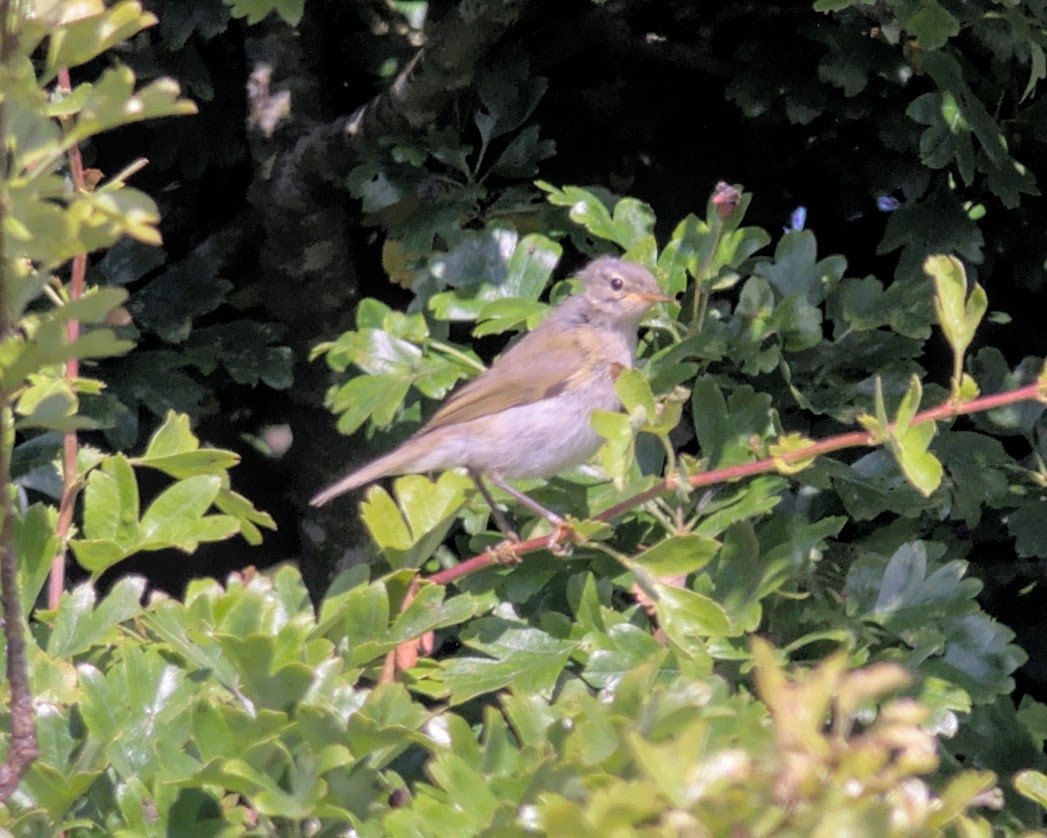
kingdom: Animalia
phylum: Chordata
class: Aves
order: Passeriformes
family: Phylloscopidae
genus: Phylloscopus
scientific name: Phylloscopus collybita
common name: Common chiffchaff
